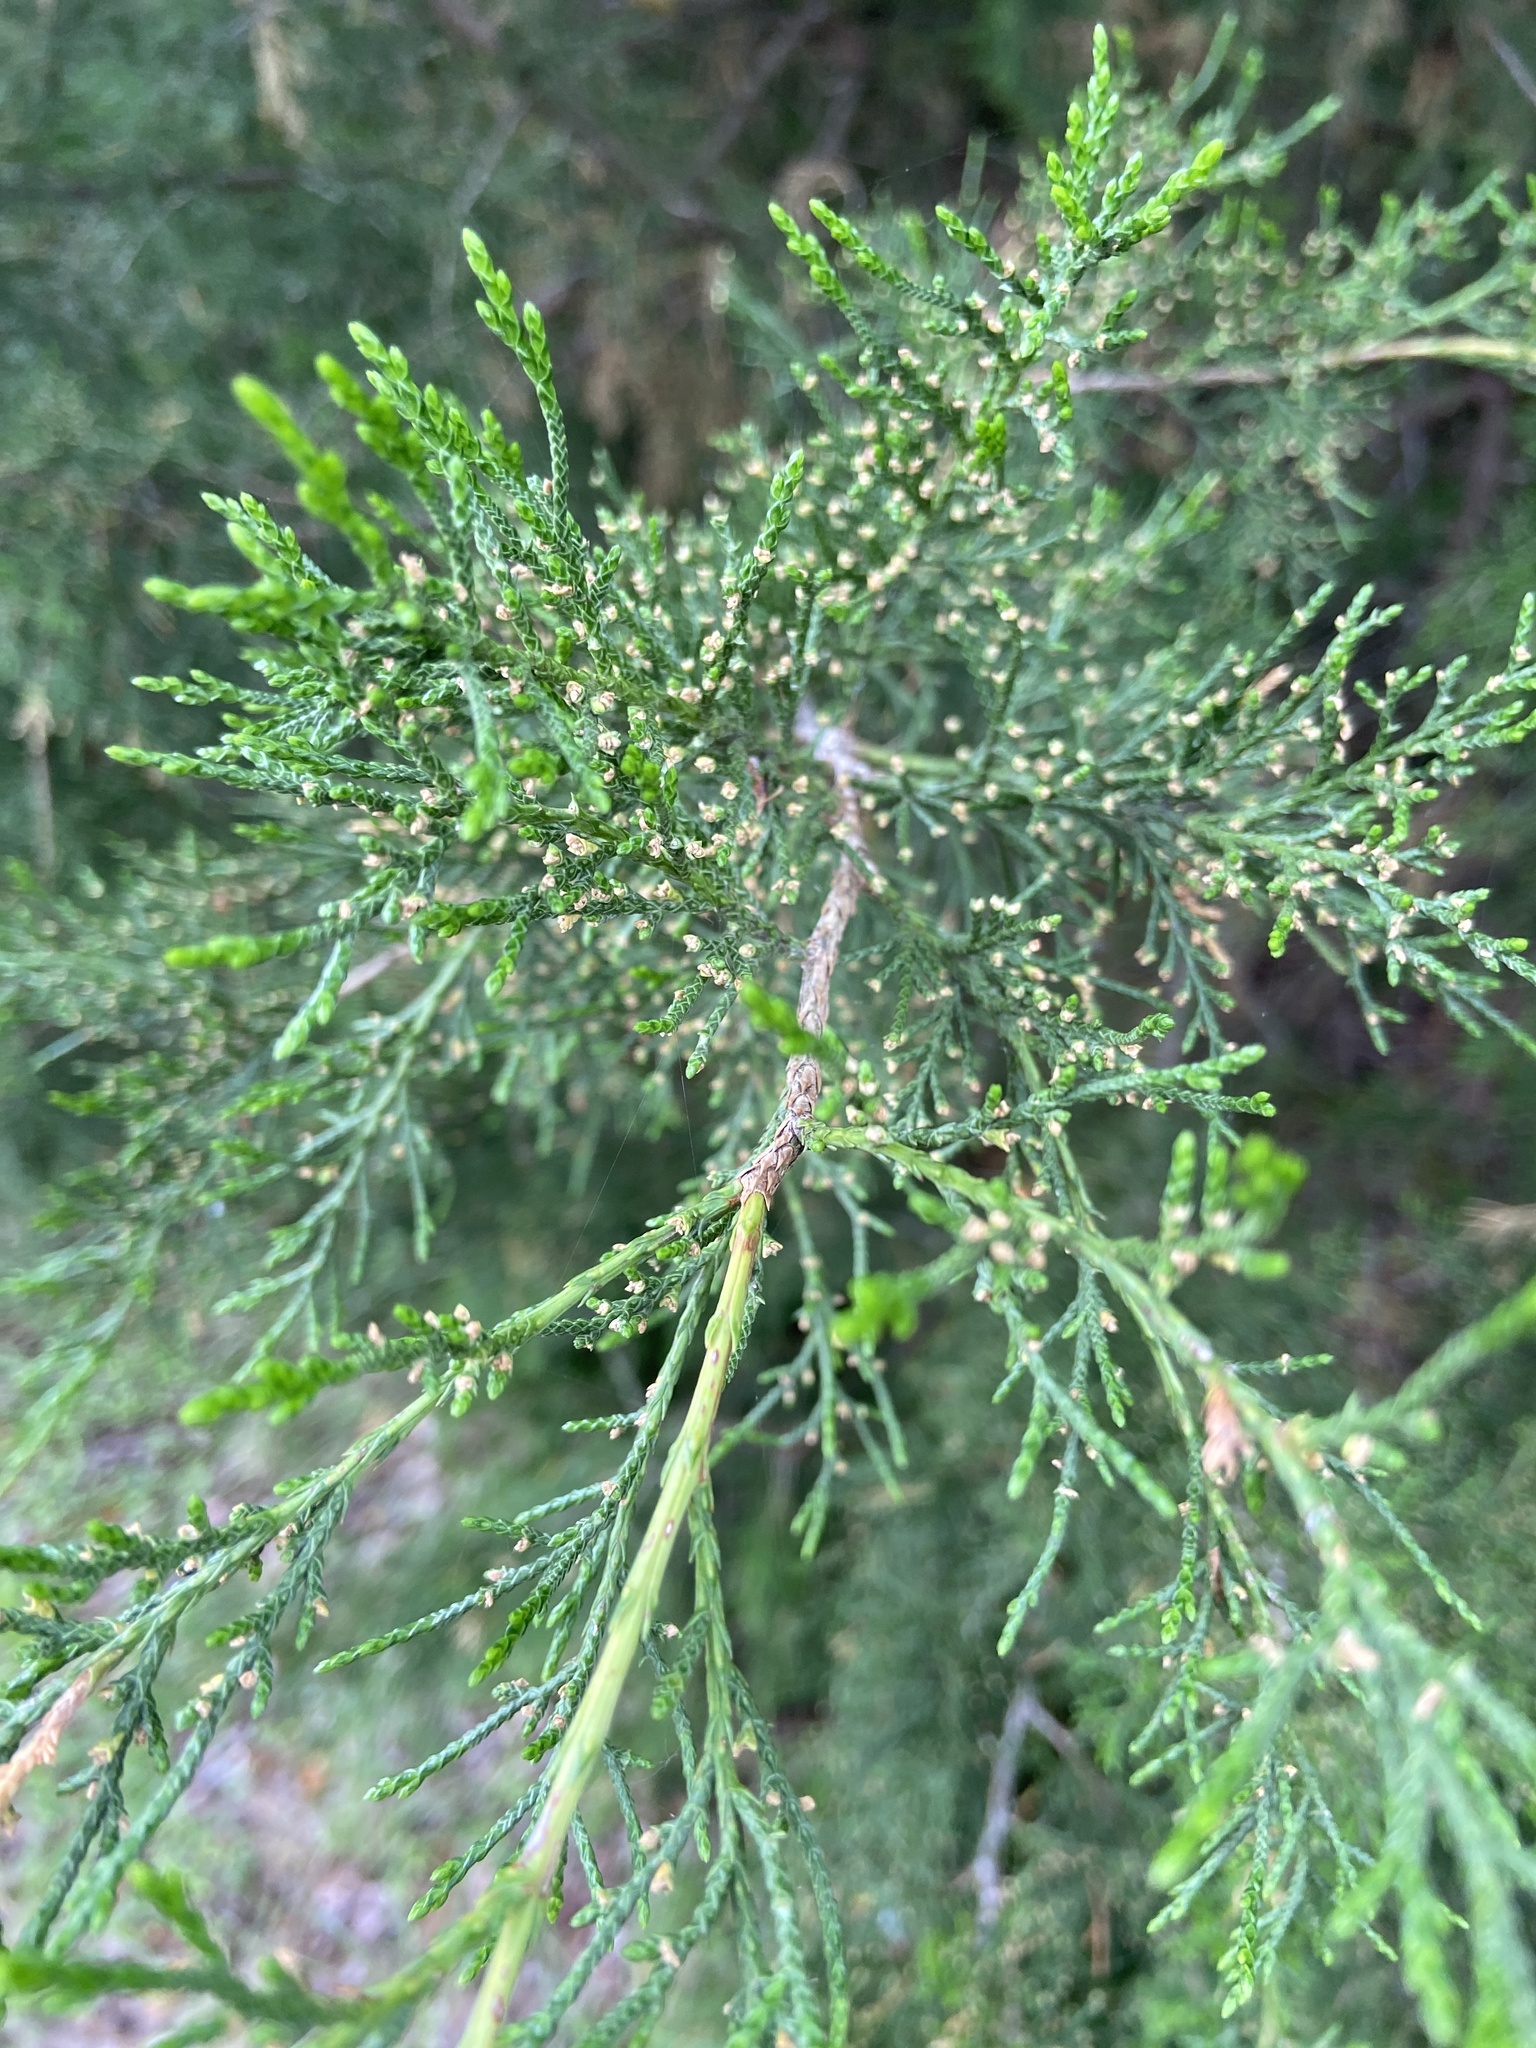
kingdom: Plantae
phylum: Tracheophyta
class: Pinopsida
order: Pinales
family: Cupressaceae
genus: Juniperus
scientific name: Juniperus virginiana
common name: Red juniper
